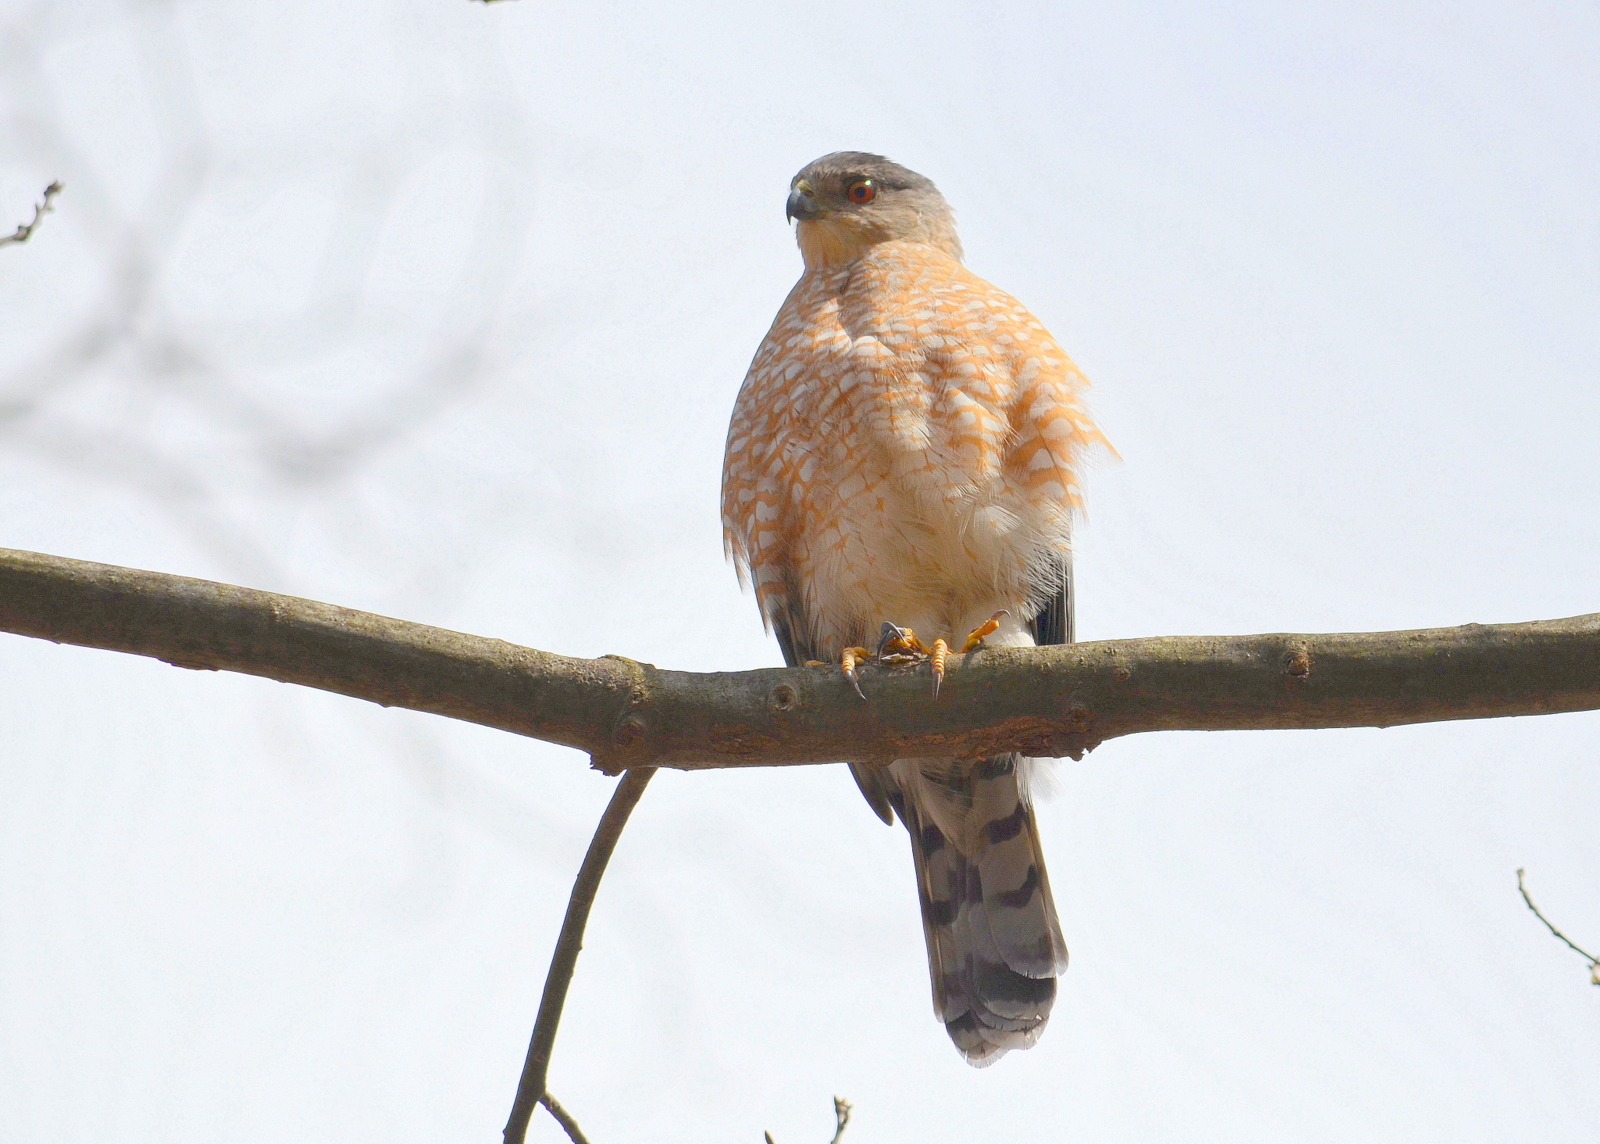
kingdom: Animalia
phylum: Chordata
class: Aves
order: Accipitriformes
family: Accipitridae
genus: Accipiter
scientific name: Accipiter cooperii
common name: Cooper's hawk
